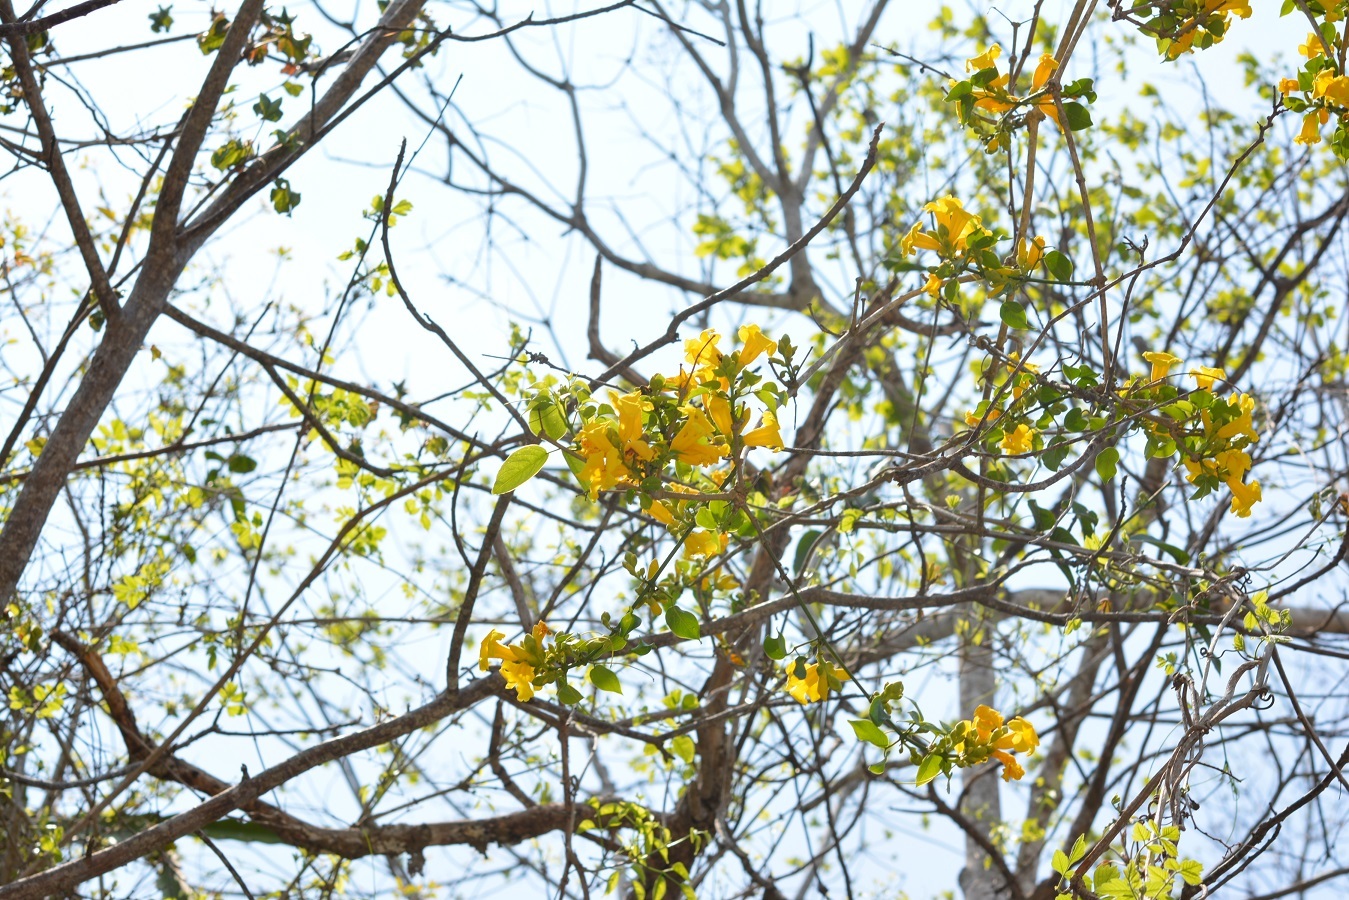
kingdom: Plantae
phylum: Tracheophyta
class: Magnoliopsida
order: Lamiales
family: Bignoniaceae
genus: Anemopaegma
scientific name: Anemopaegma chrysanthum
